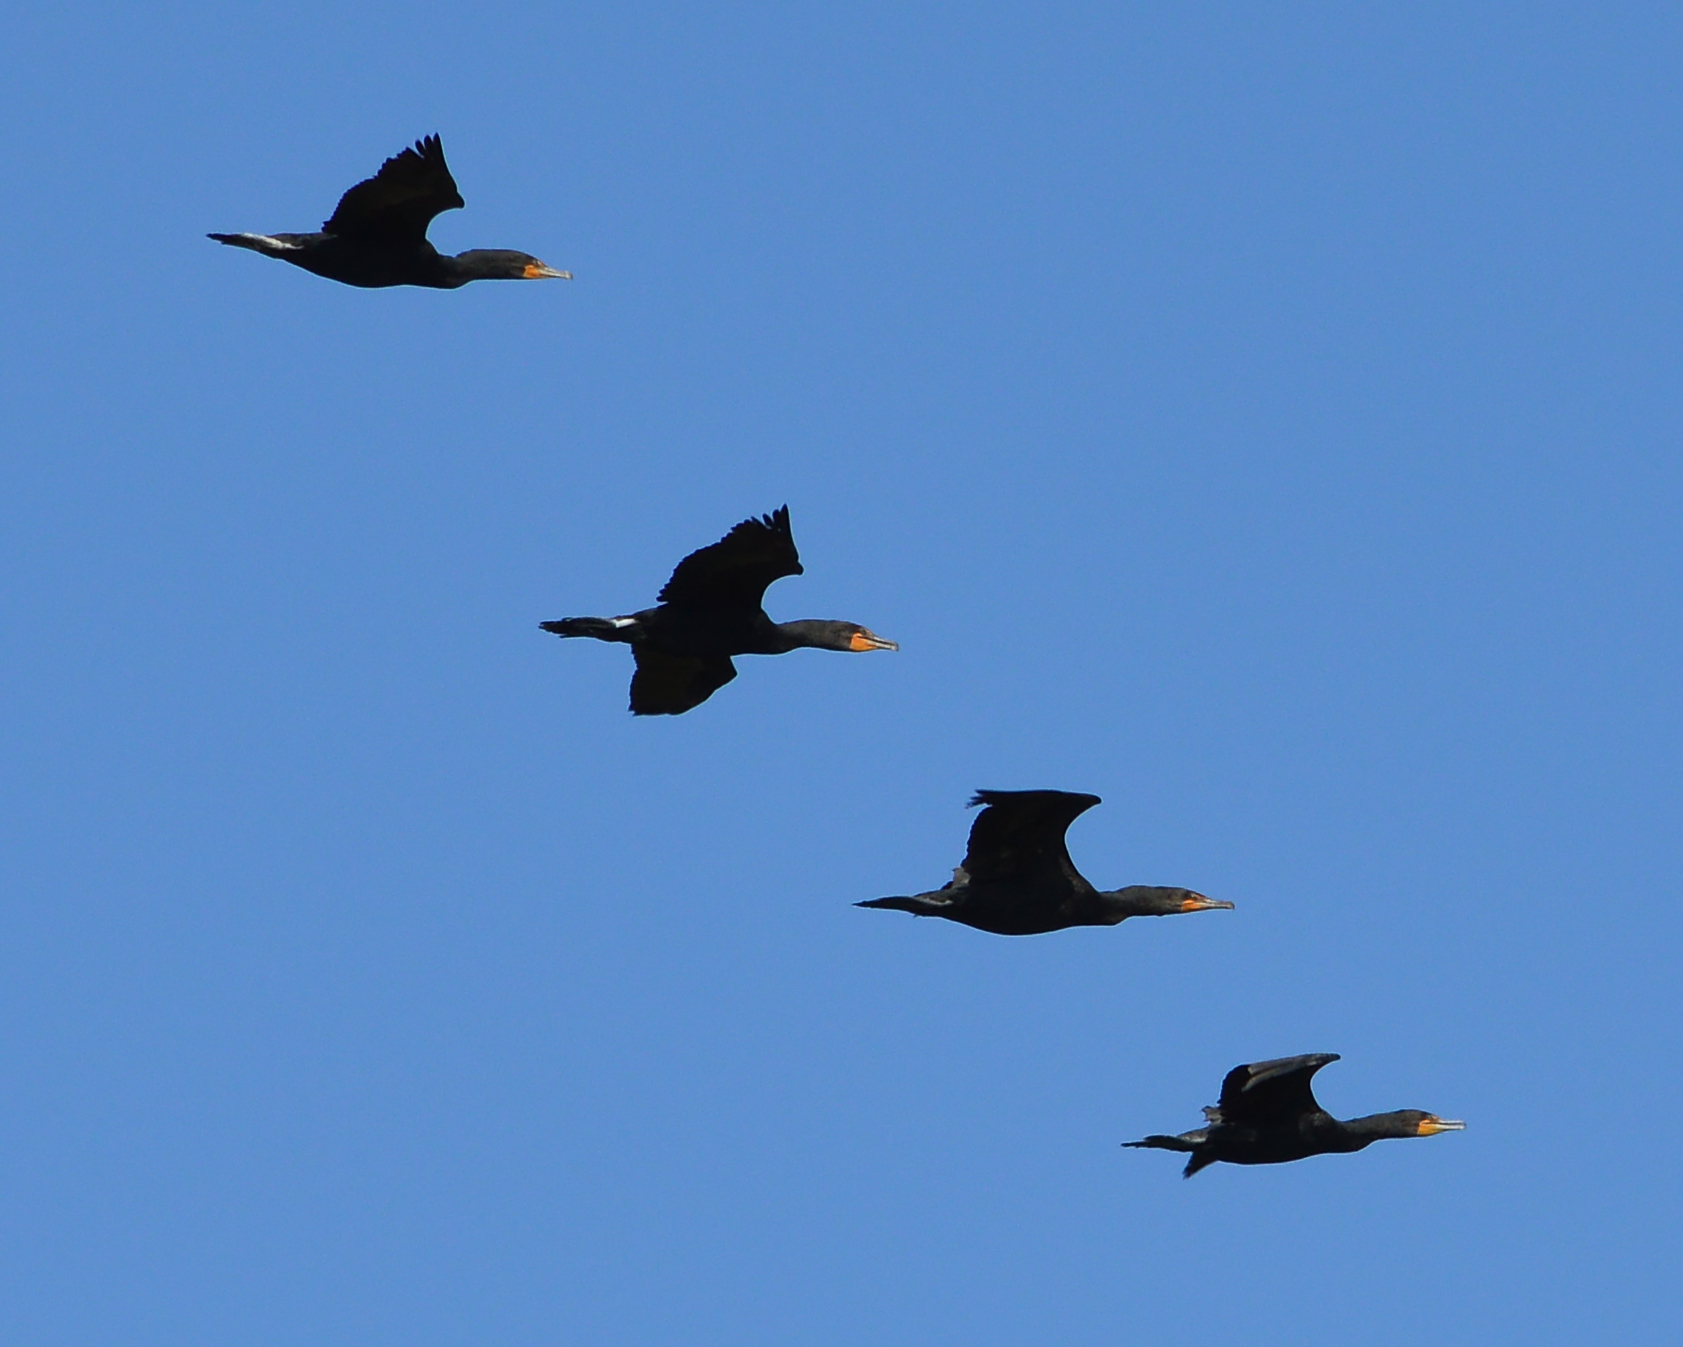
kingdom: Animalia
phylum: Chordata
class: Aves
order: Suliformes
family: Phalacrocoracidae
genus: Phalacrocorax
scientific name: Phalacrocorax auritus
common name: Double-crested cormorant
